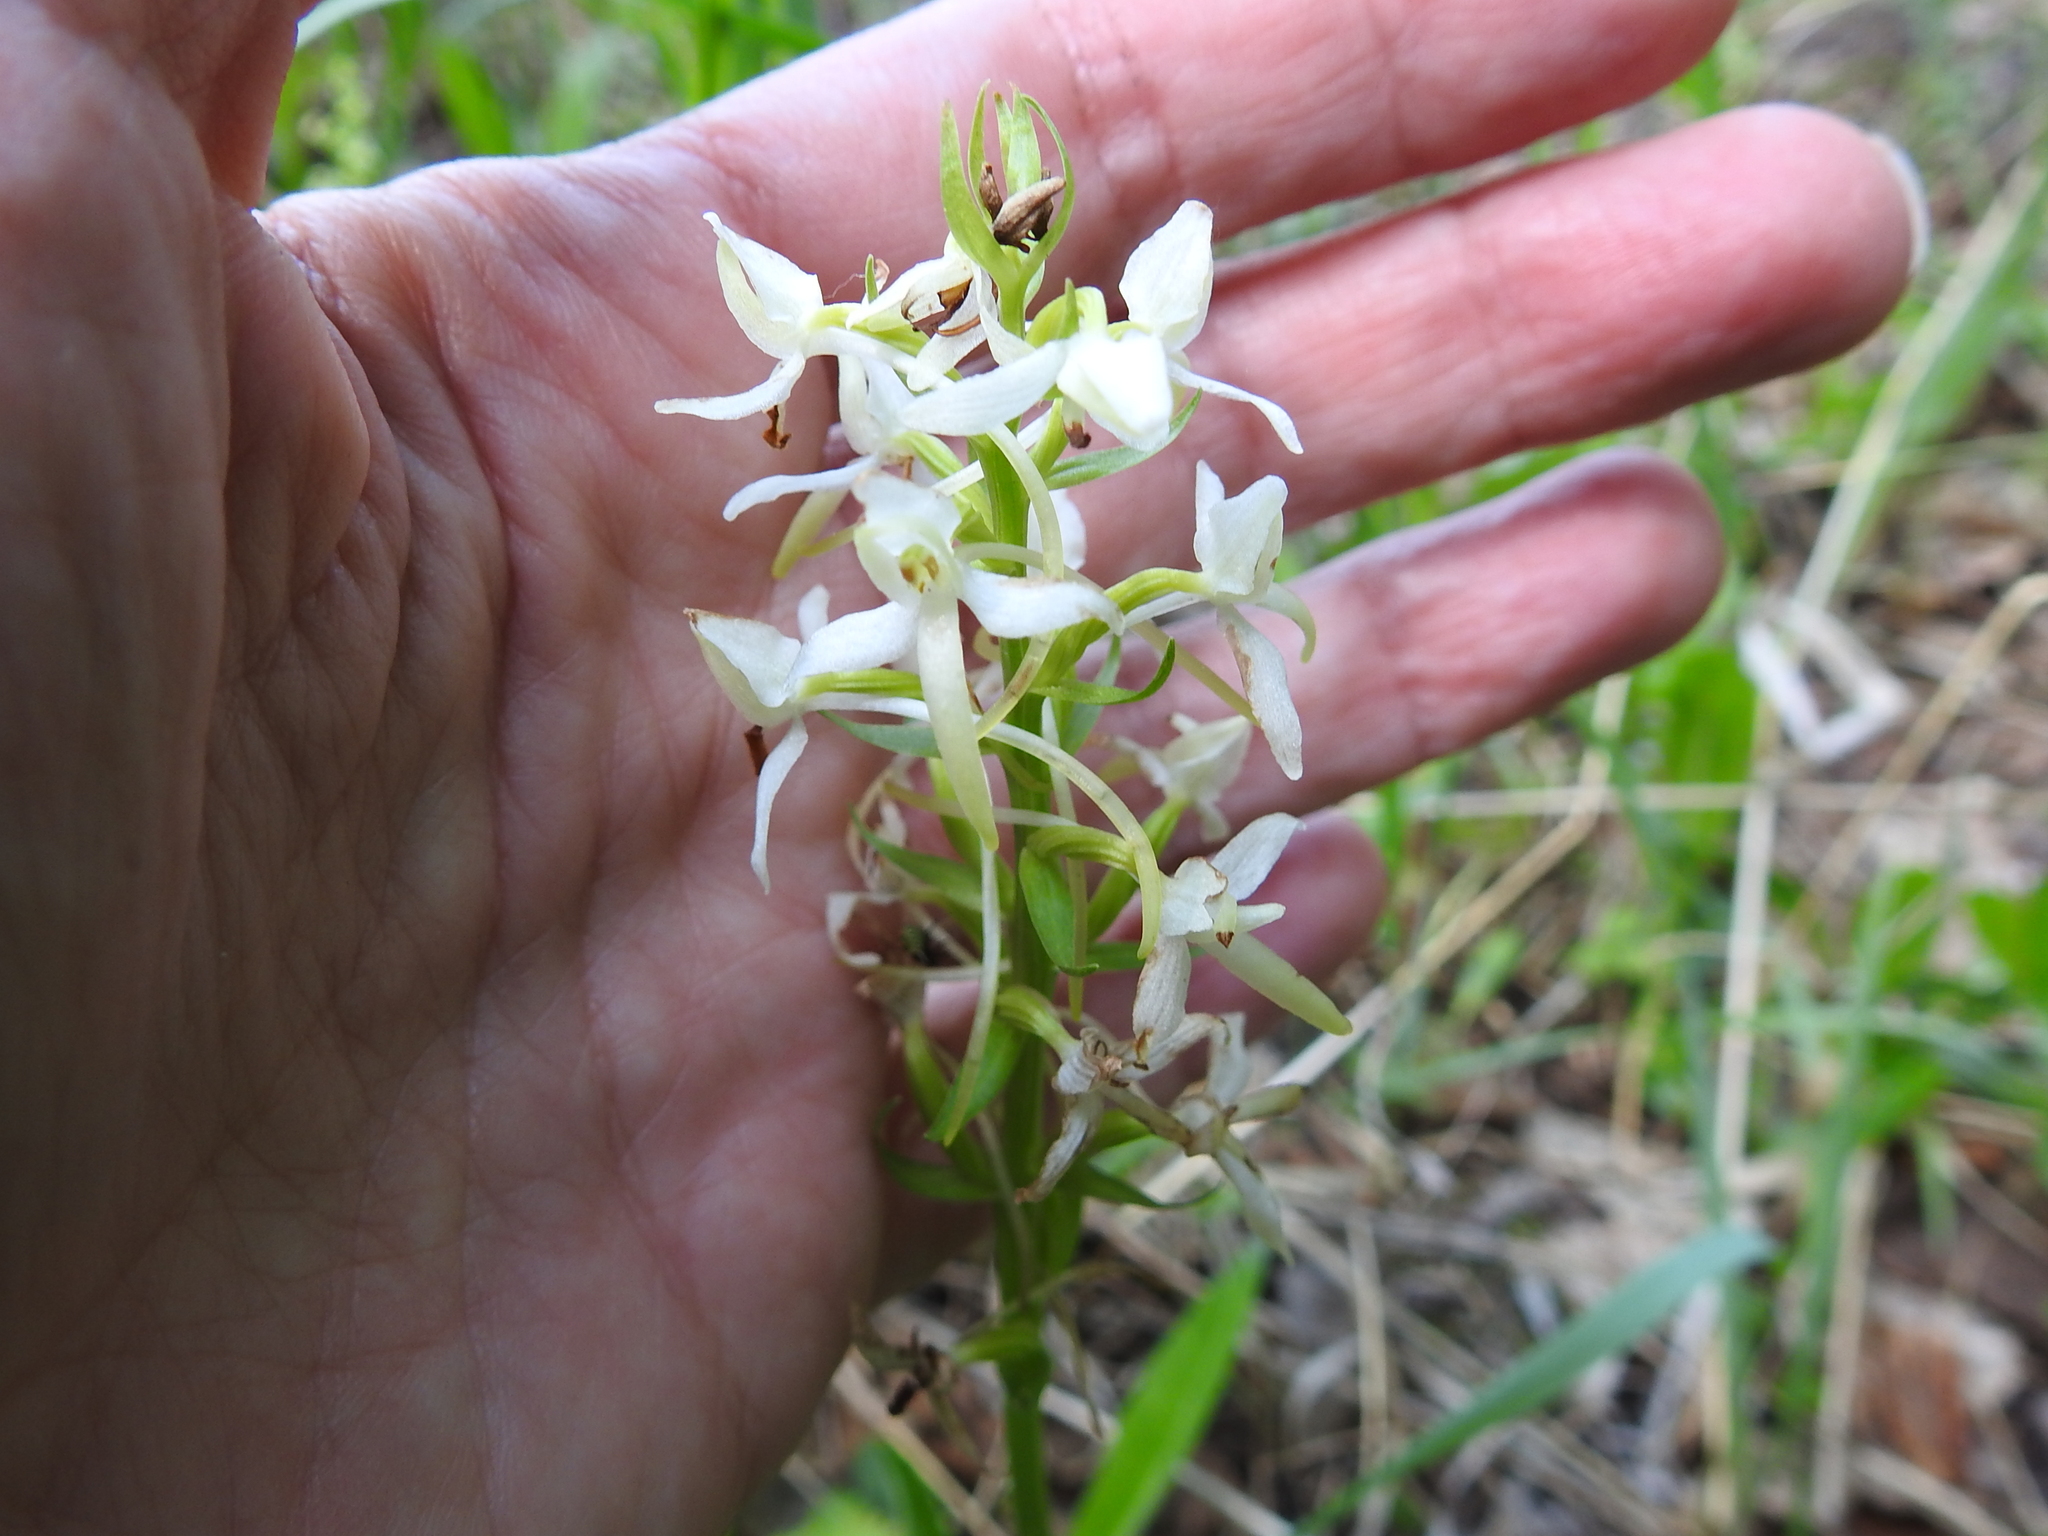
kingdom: Plantae
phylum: Tracheophyta
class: Liliopsida
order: Asparagales
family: Orchidaceae
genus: Platanthera
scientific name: Platanthera bifolia
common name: Lesser butterfly-orchid
